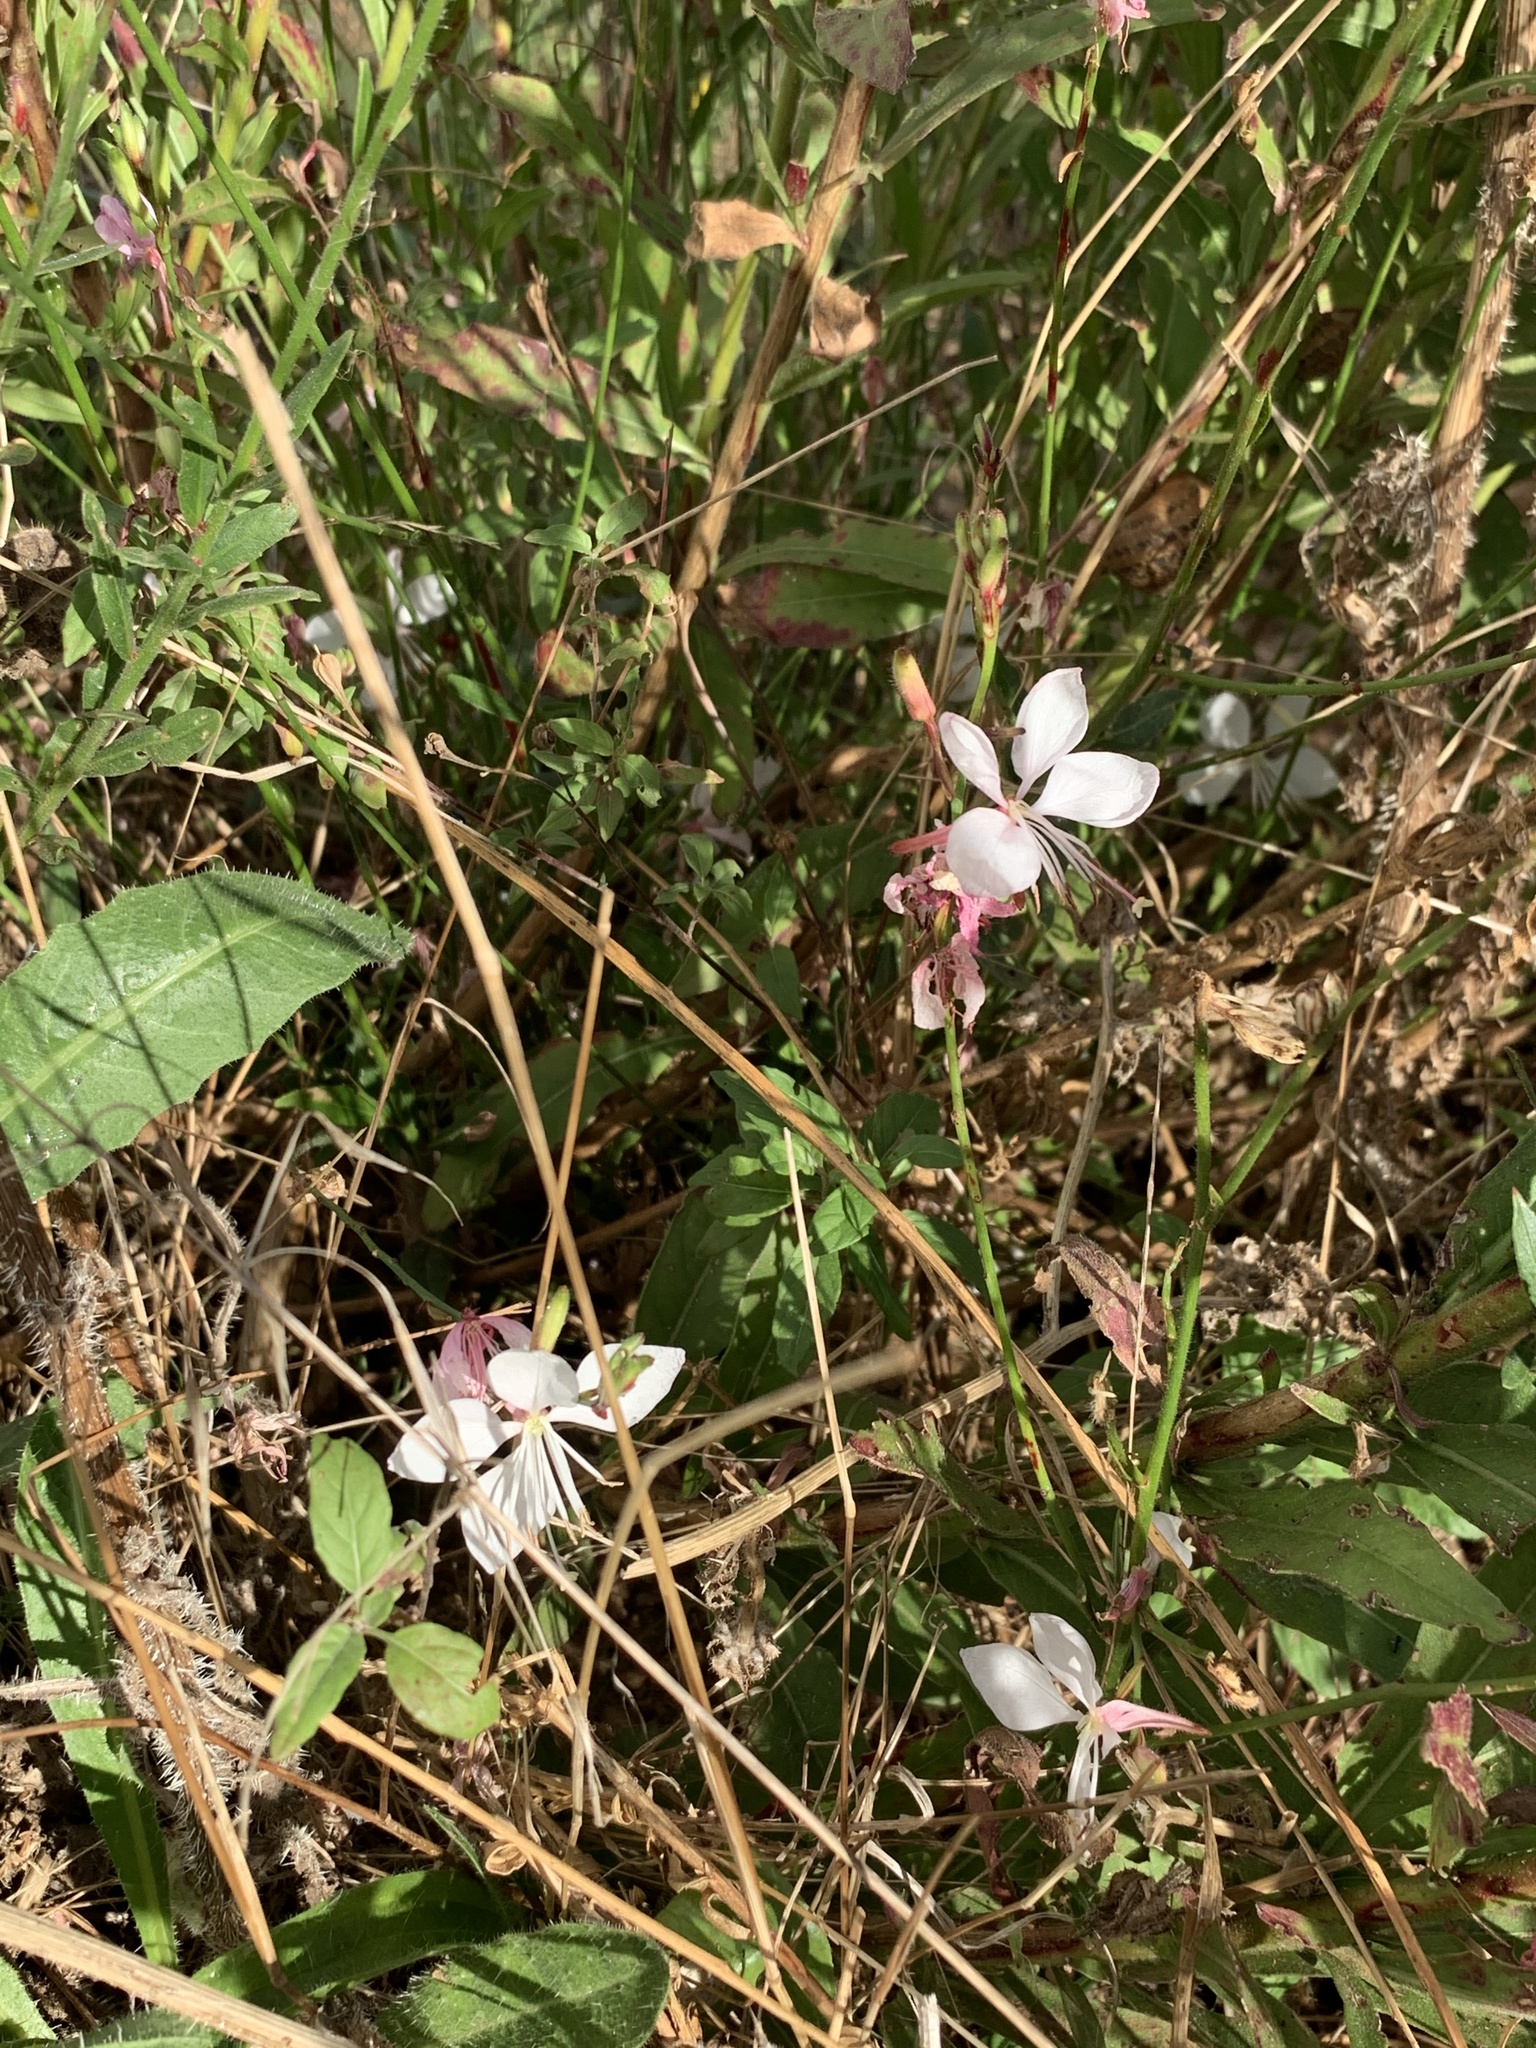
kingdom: Plantae
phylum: Tracheophyta
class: Magnoliopsida
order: Myrtales
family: Onagraceae
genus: Oenothera
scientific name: Oenothera lindheimeri
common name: Lindheimer's beeblossom
